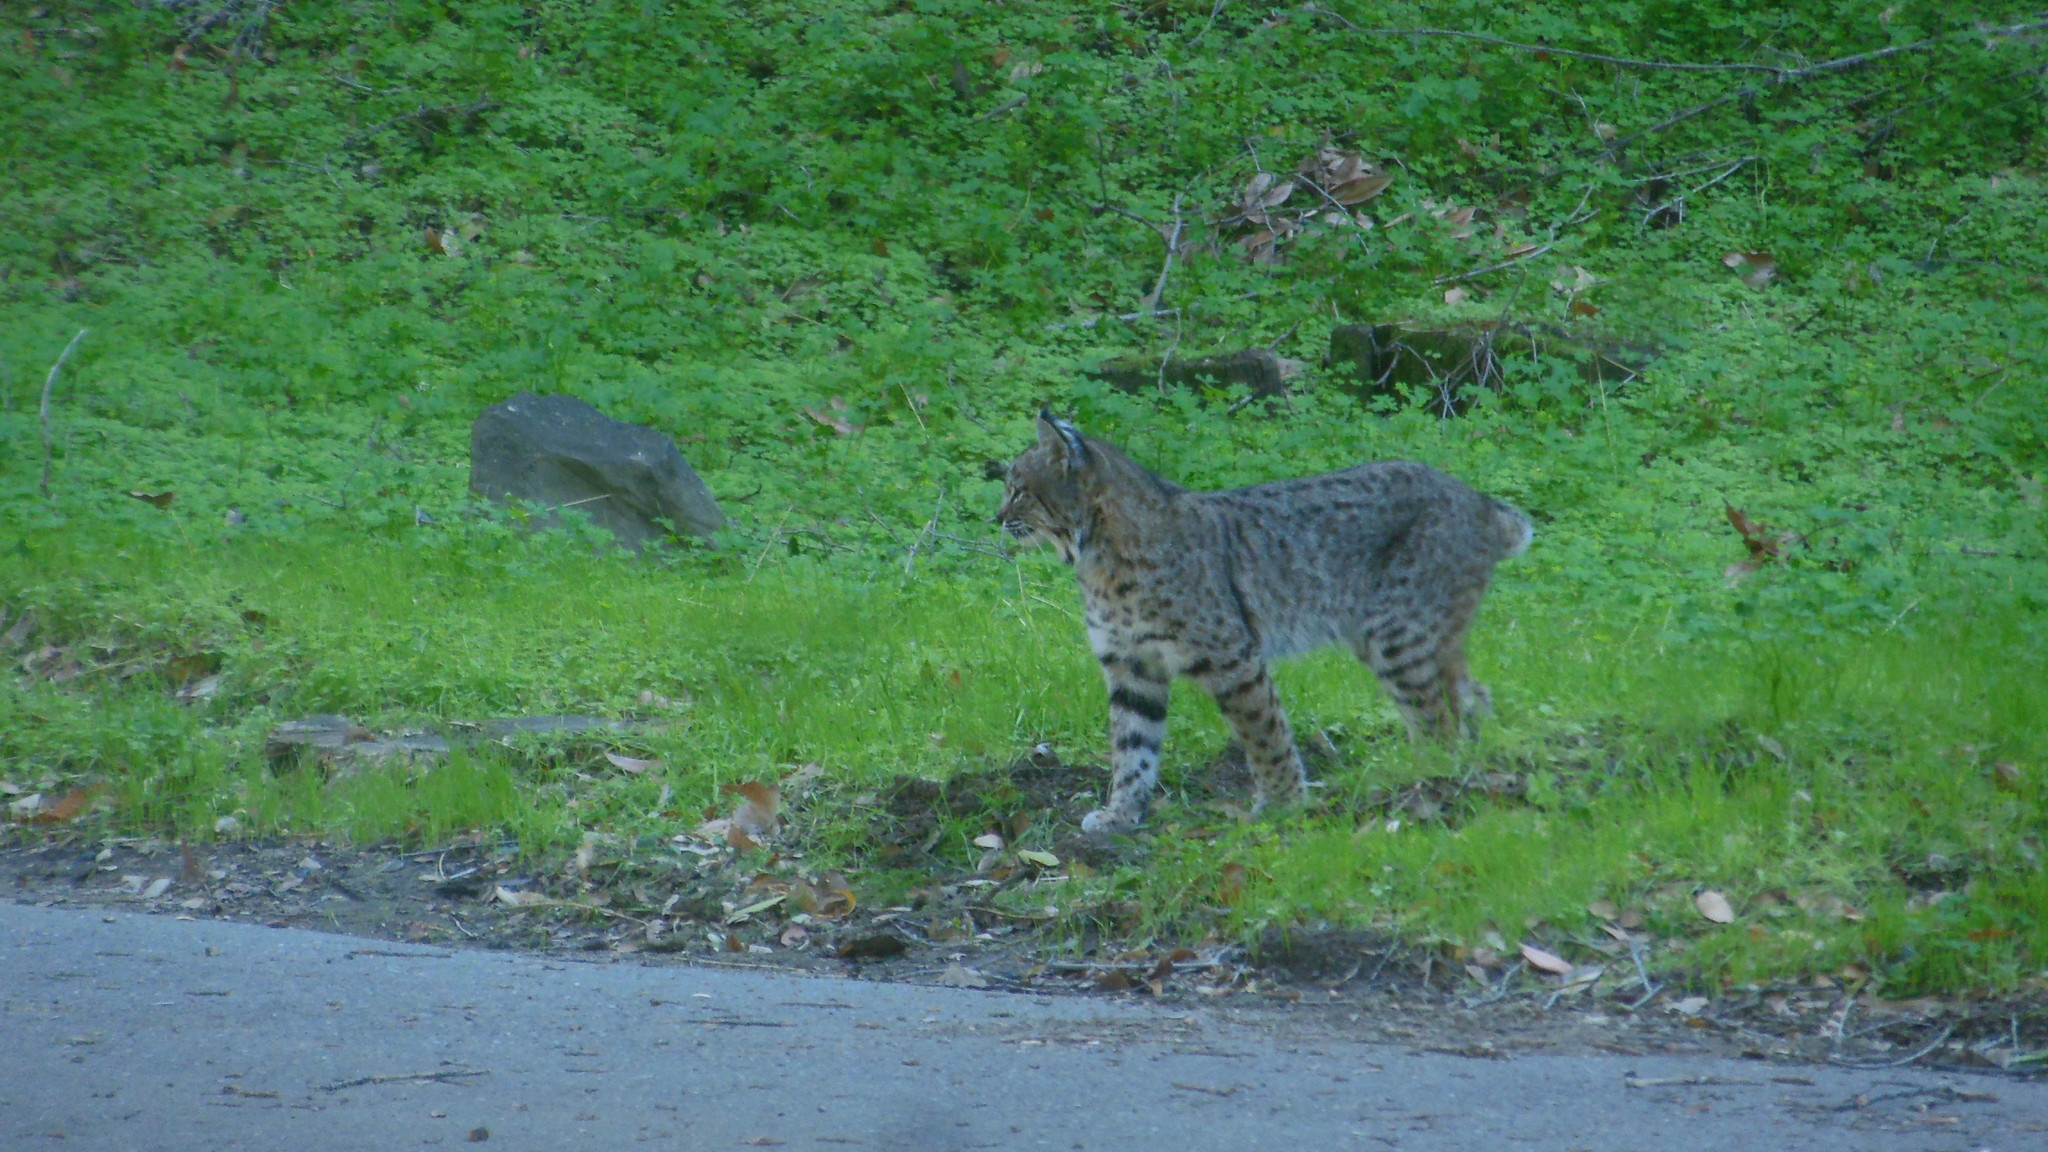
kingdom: Animalia
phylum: Chordata
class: Mammalia
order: Carnivora
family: Felidae
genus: Lynx
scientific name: Lynx rufus
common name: Bobcat
